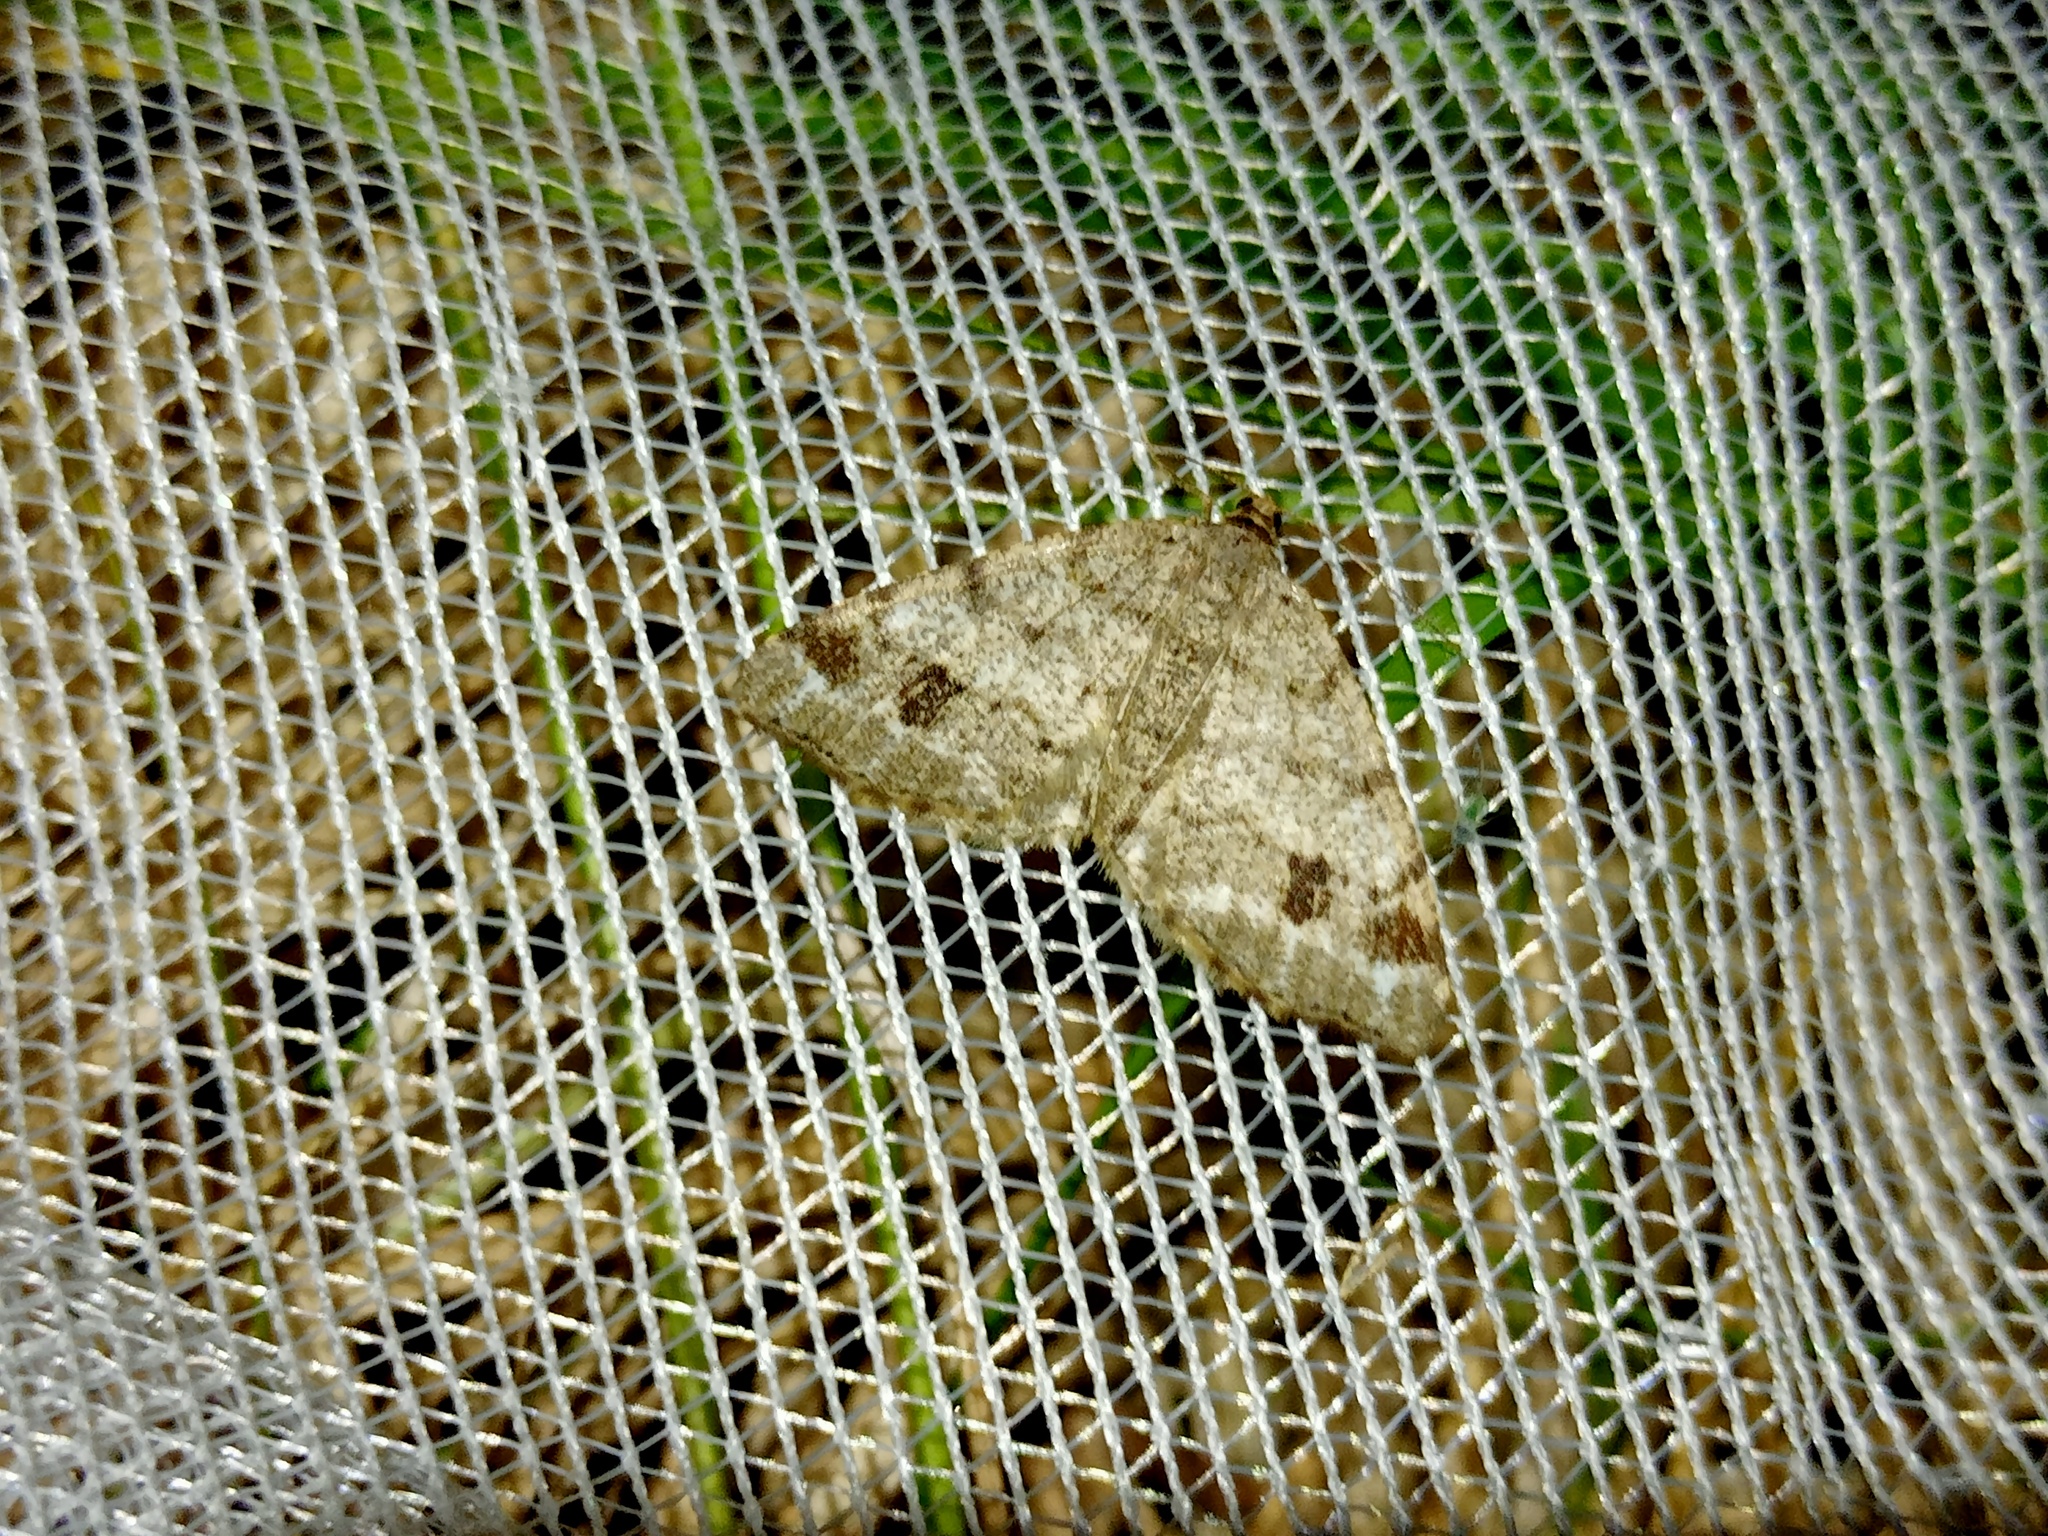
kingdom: Animalia
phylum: Arthropoda
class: Insecta
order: Lepidoptera
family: Geometridae
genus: Macaria
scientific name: Macaria signaria
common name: Dusky peacock
